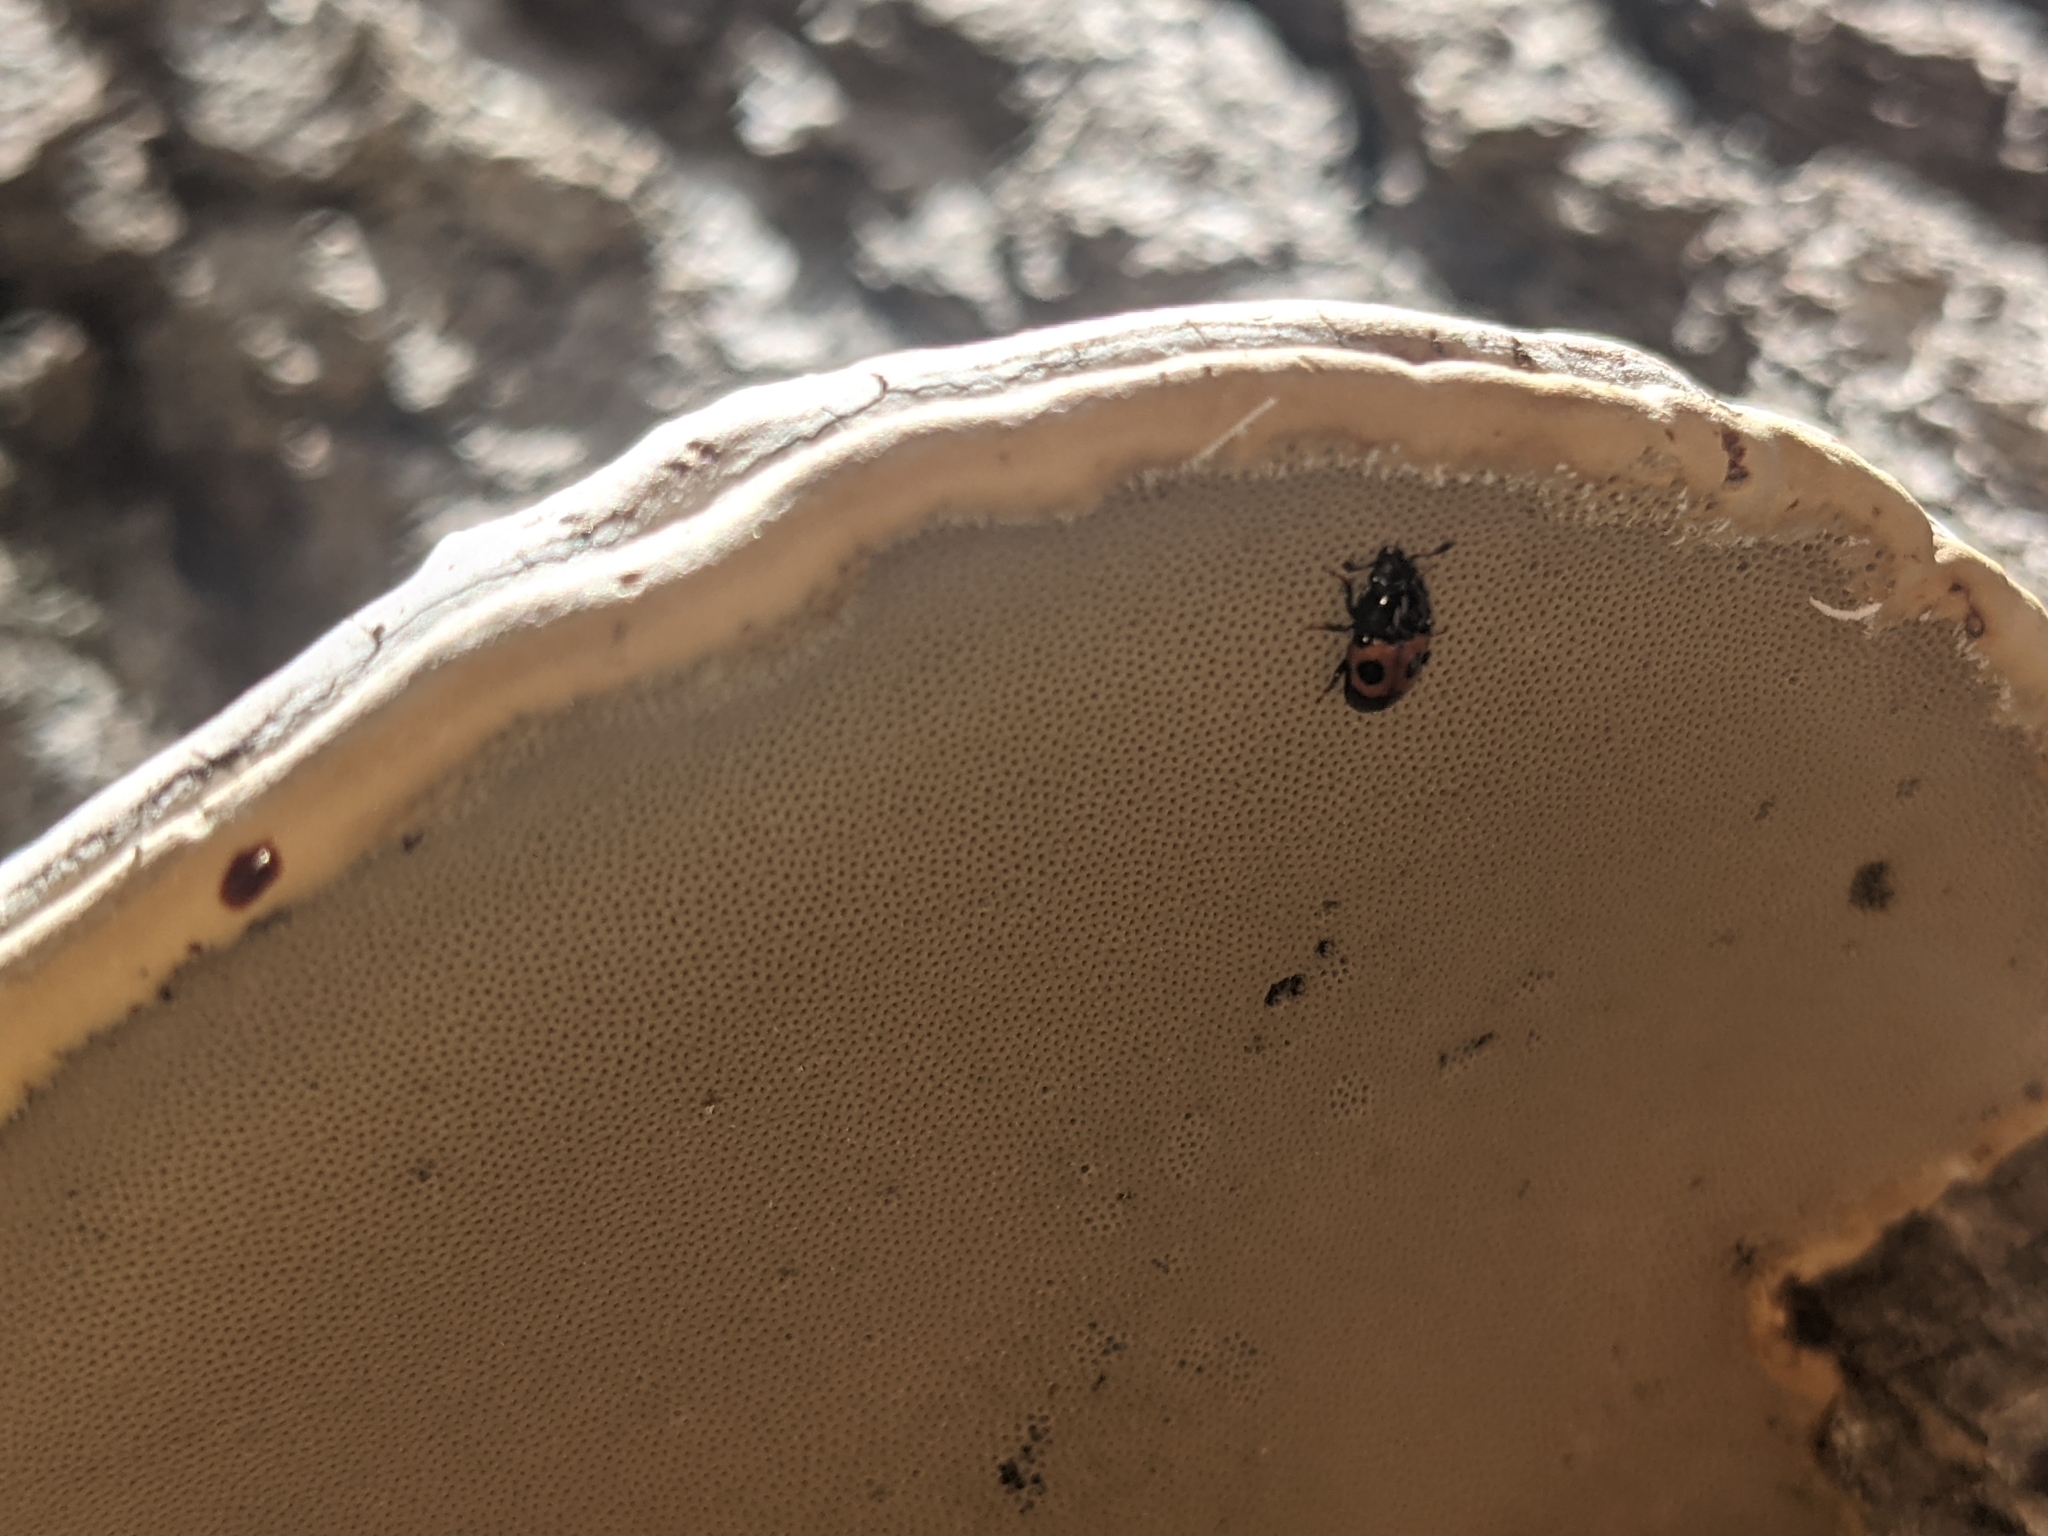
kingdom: Animalia
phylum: Arthropoda
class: Insecta
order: Coleoptera
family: Nitidulidae
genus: Glischrochilus
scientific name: Glischrochilus sanguinolentus
